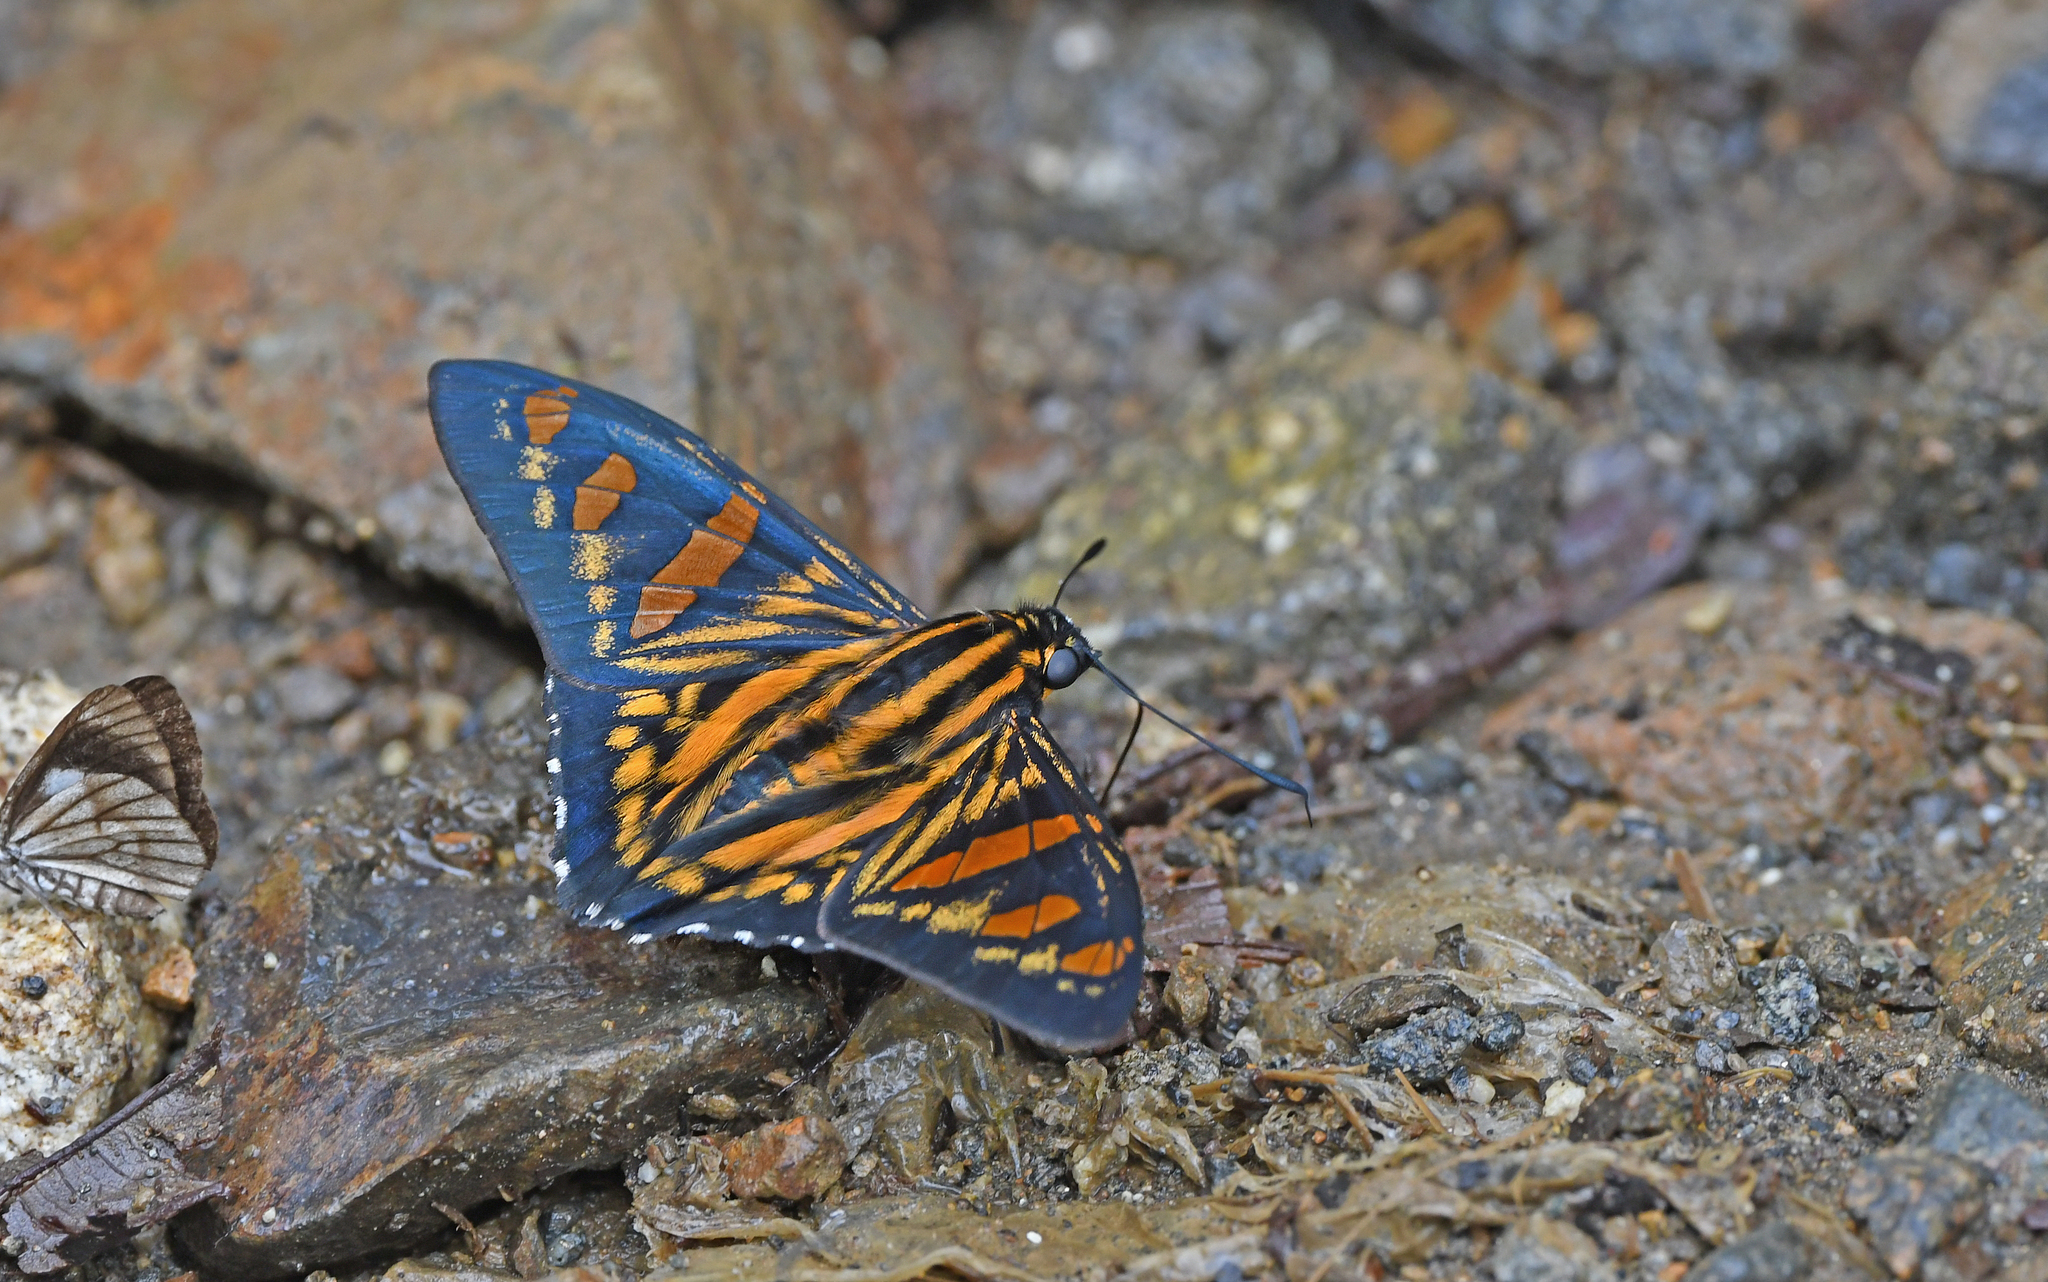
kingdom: Animalia
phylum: Arthropoda
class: Insecta
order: Lepidoptera
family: Hesperiidae
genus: Phocides
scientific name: Phocides yokhara
